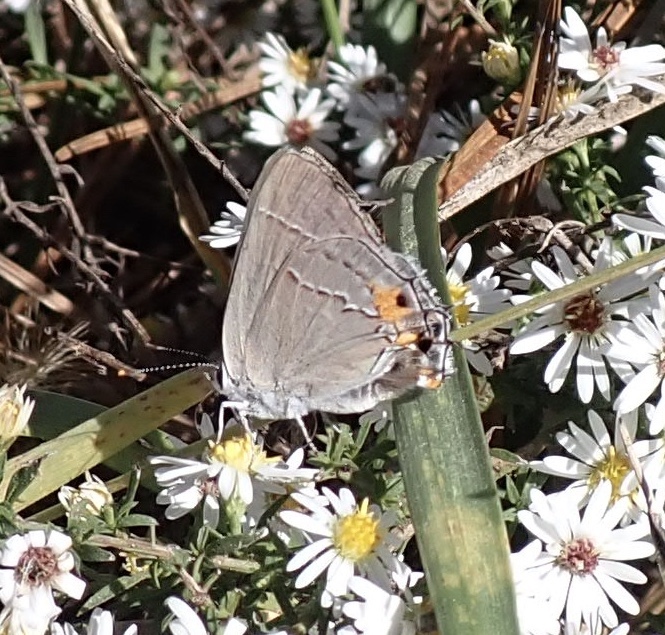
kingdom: Animalia
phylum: Arthropoda
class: Insecta
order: Lepidoptera
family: Lycaenidae
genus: Strymon
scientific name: Strymon melinus
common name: Gray hairstreak
